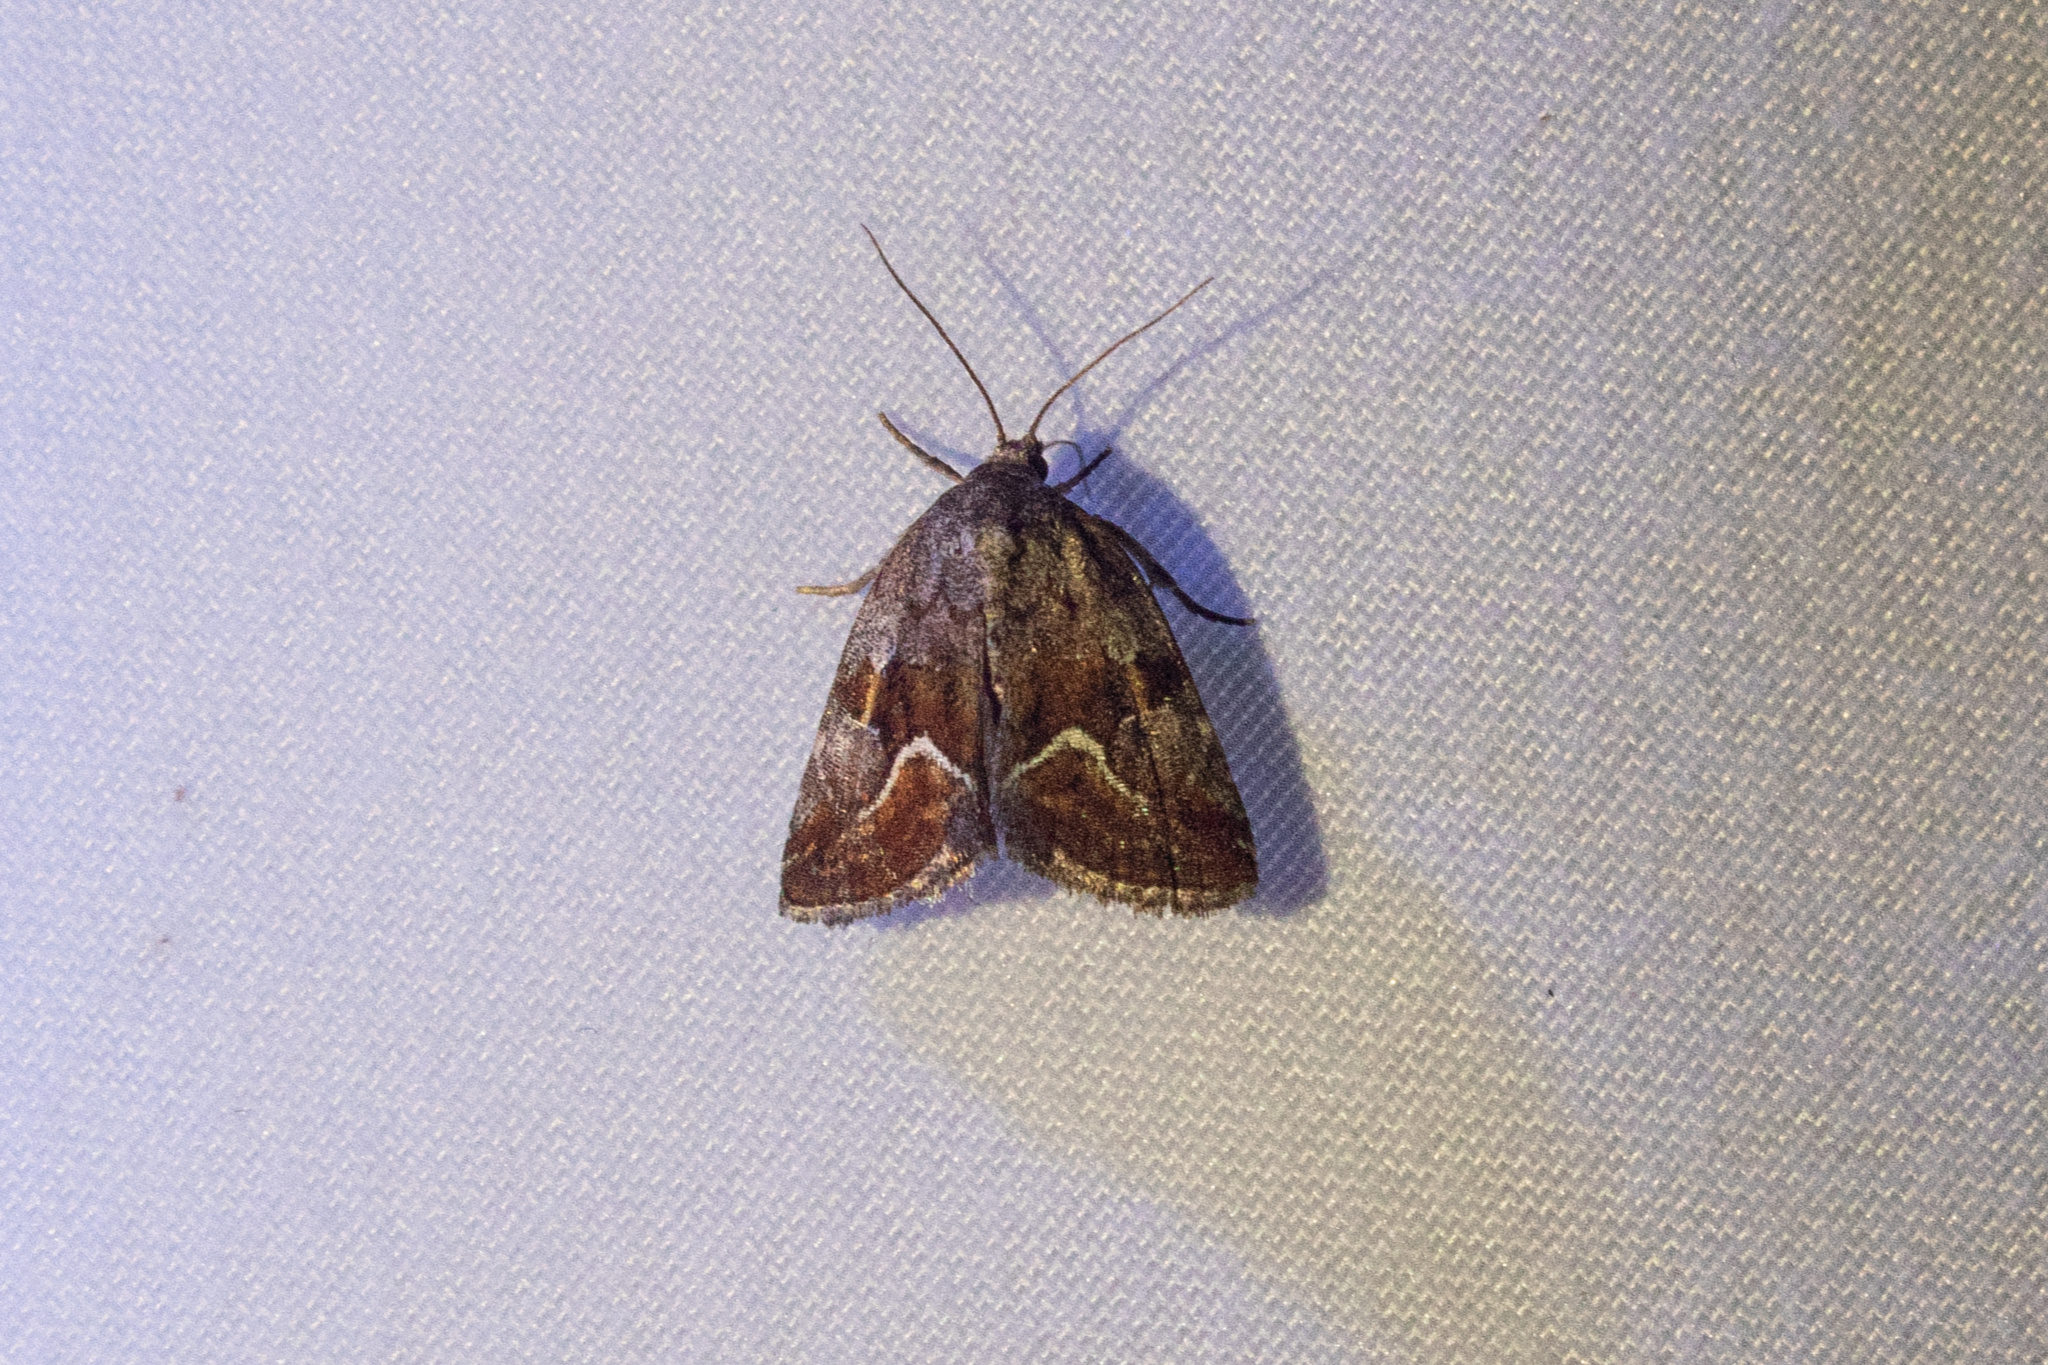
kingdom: Animalia
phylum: Arthropoda
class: Insecta
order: Lepidoptera
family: Noctuidae
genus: Deltote
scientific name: Deltote bellicula
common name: Bog glyph
